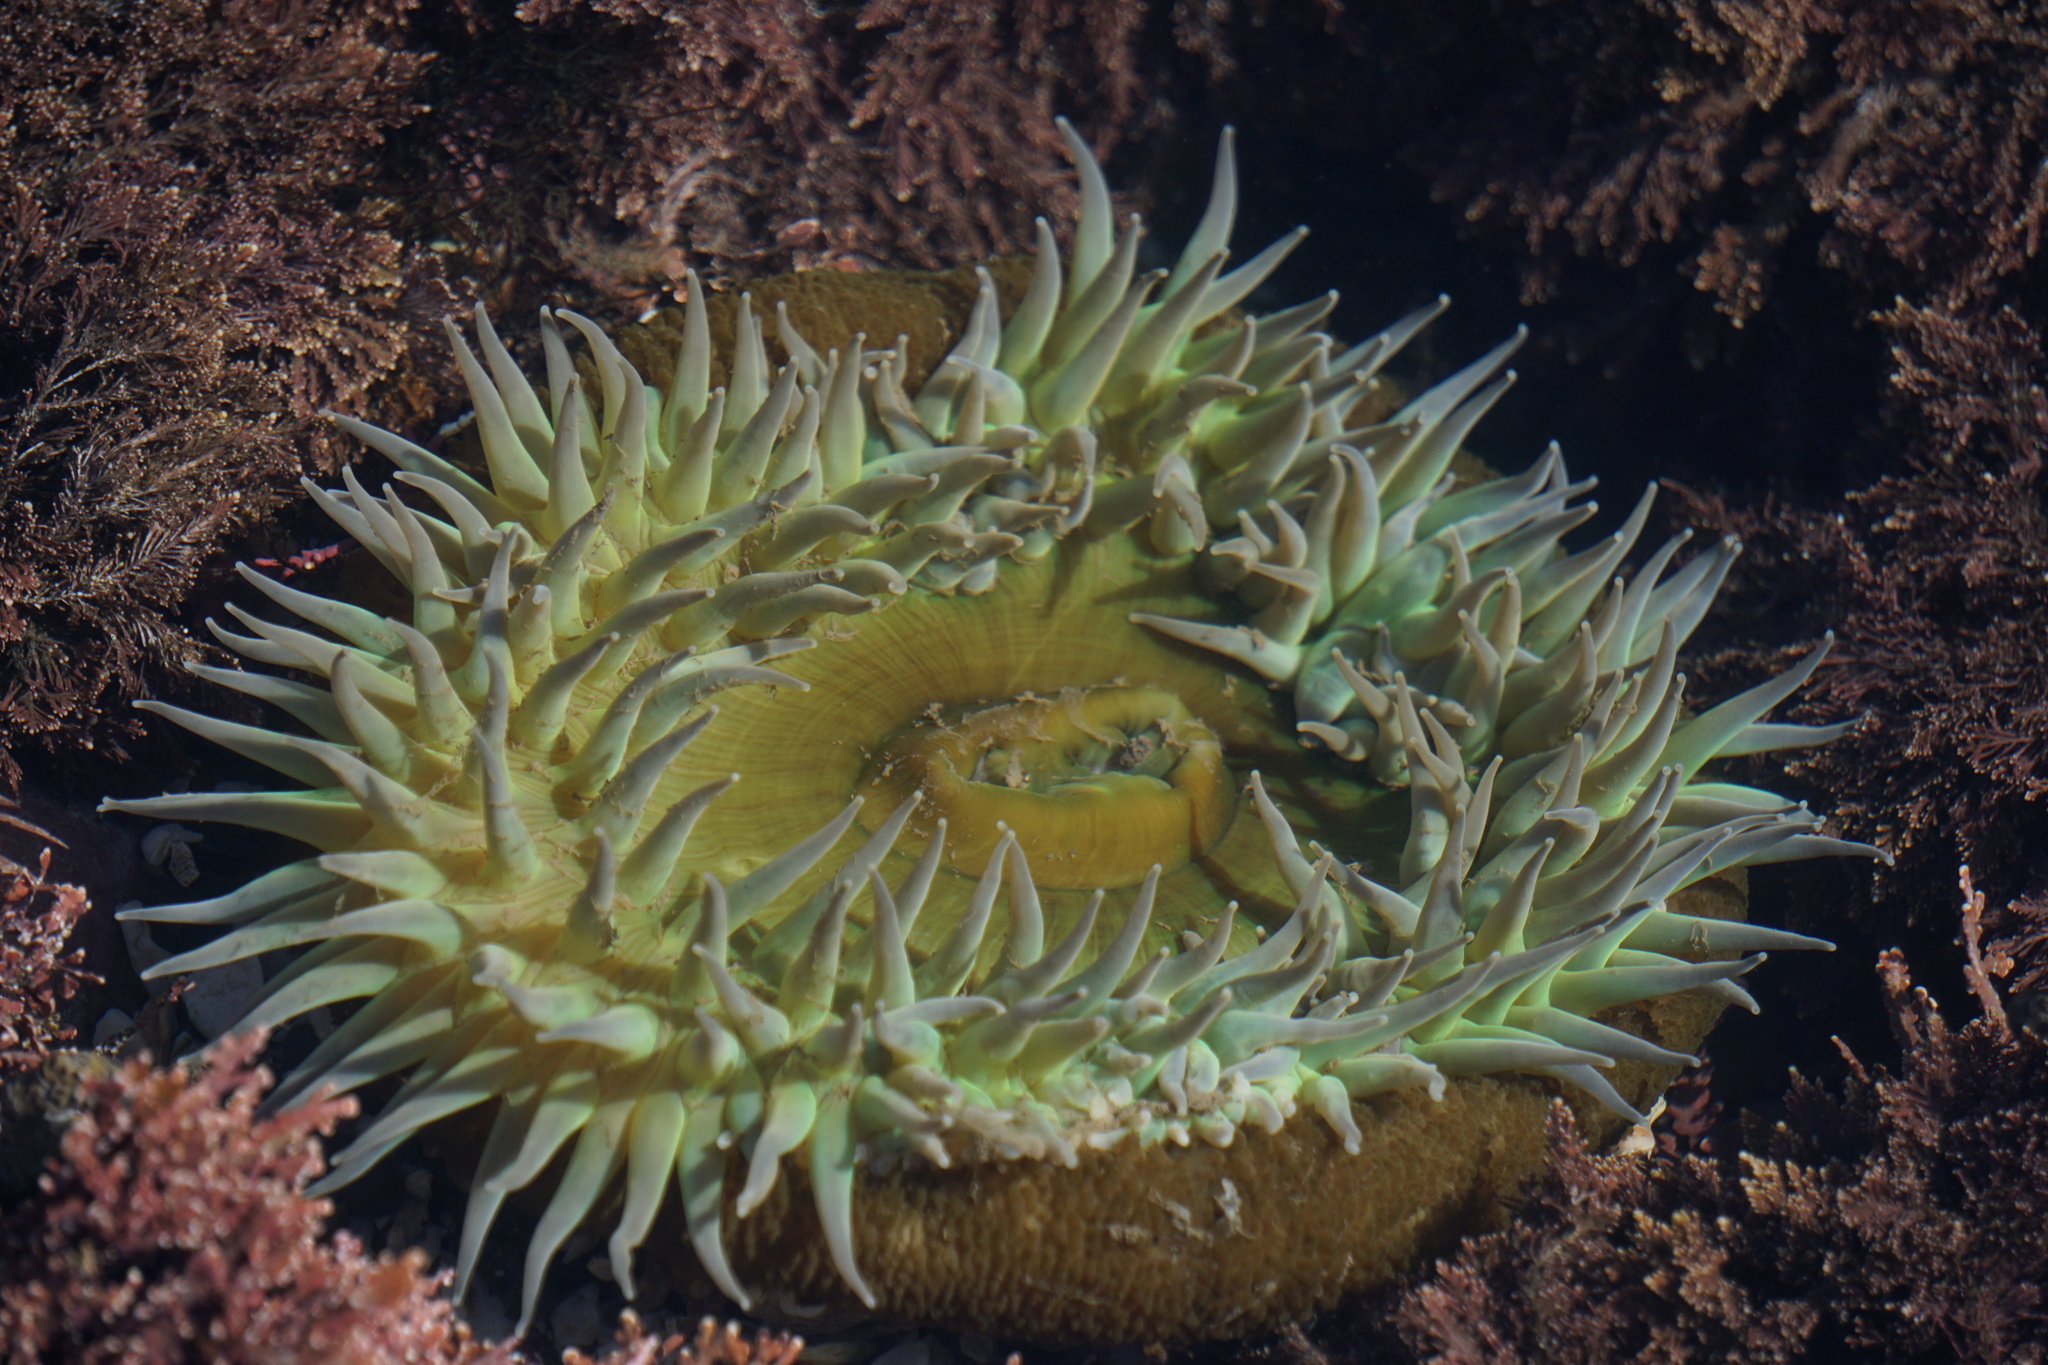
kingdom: Animalia
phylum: Cnidaria
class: Anthozoa
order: Actiniaria
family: Actiniidae
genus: Anthopleura
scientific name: Anthopleura xanthogrammica
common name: Giant green anemone
